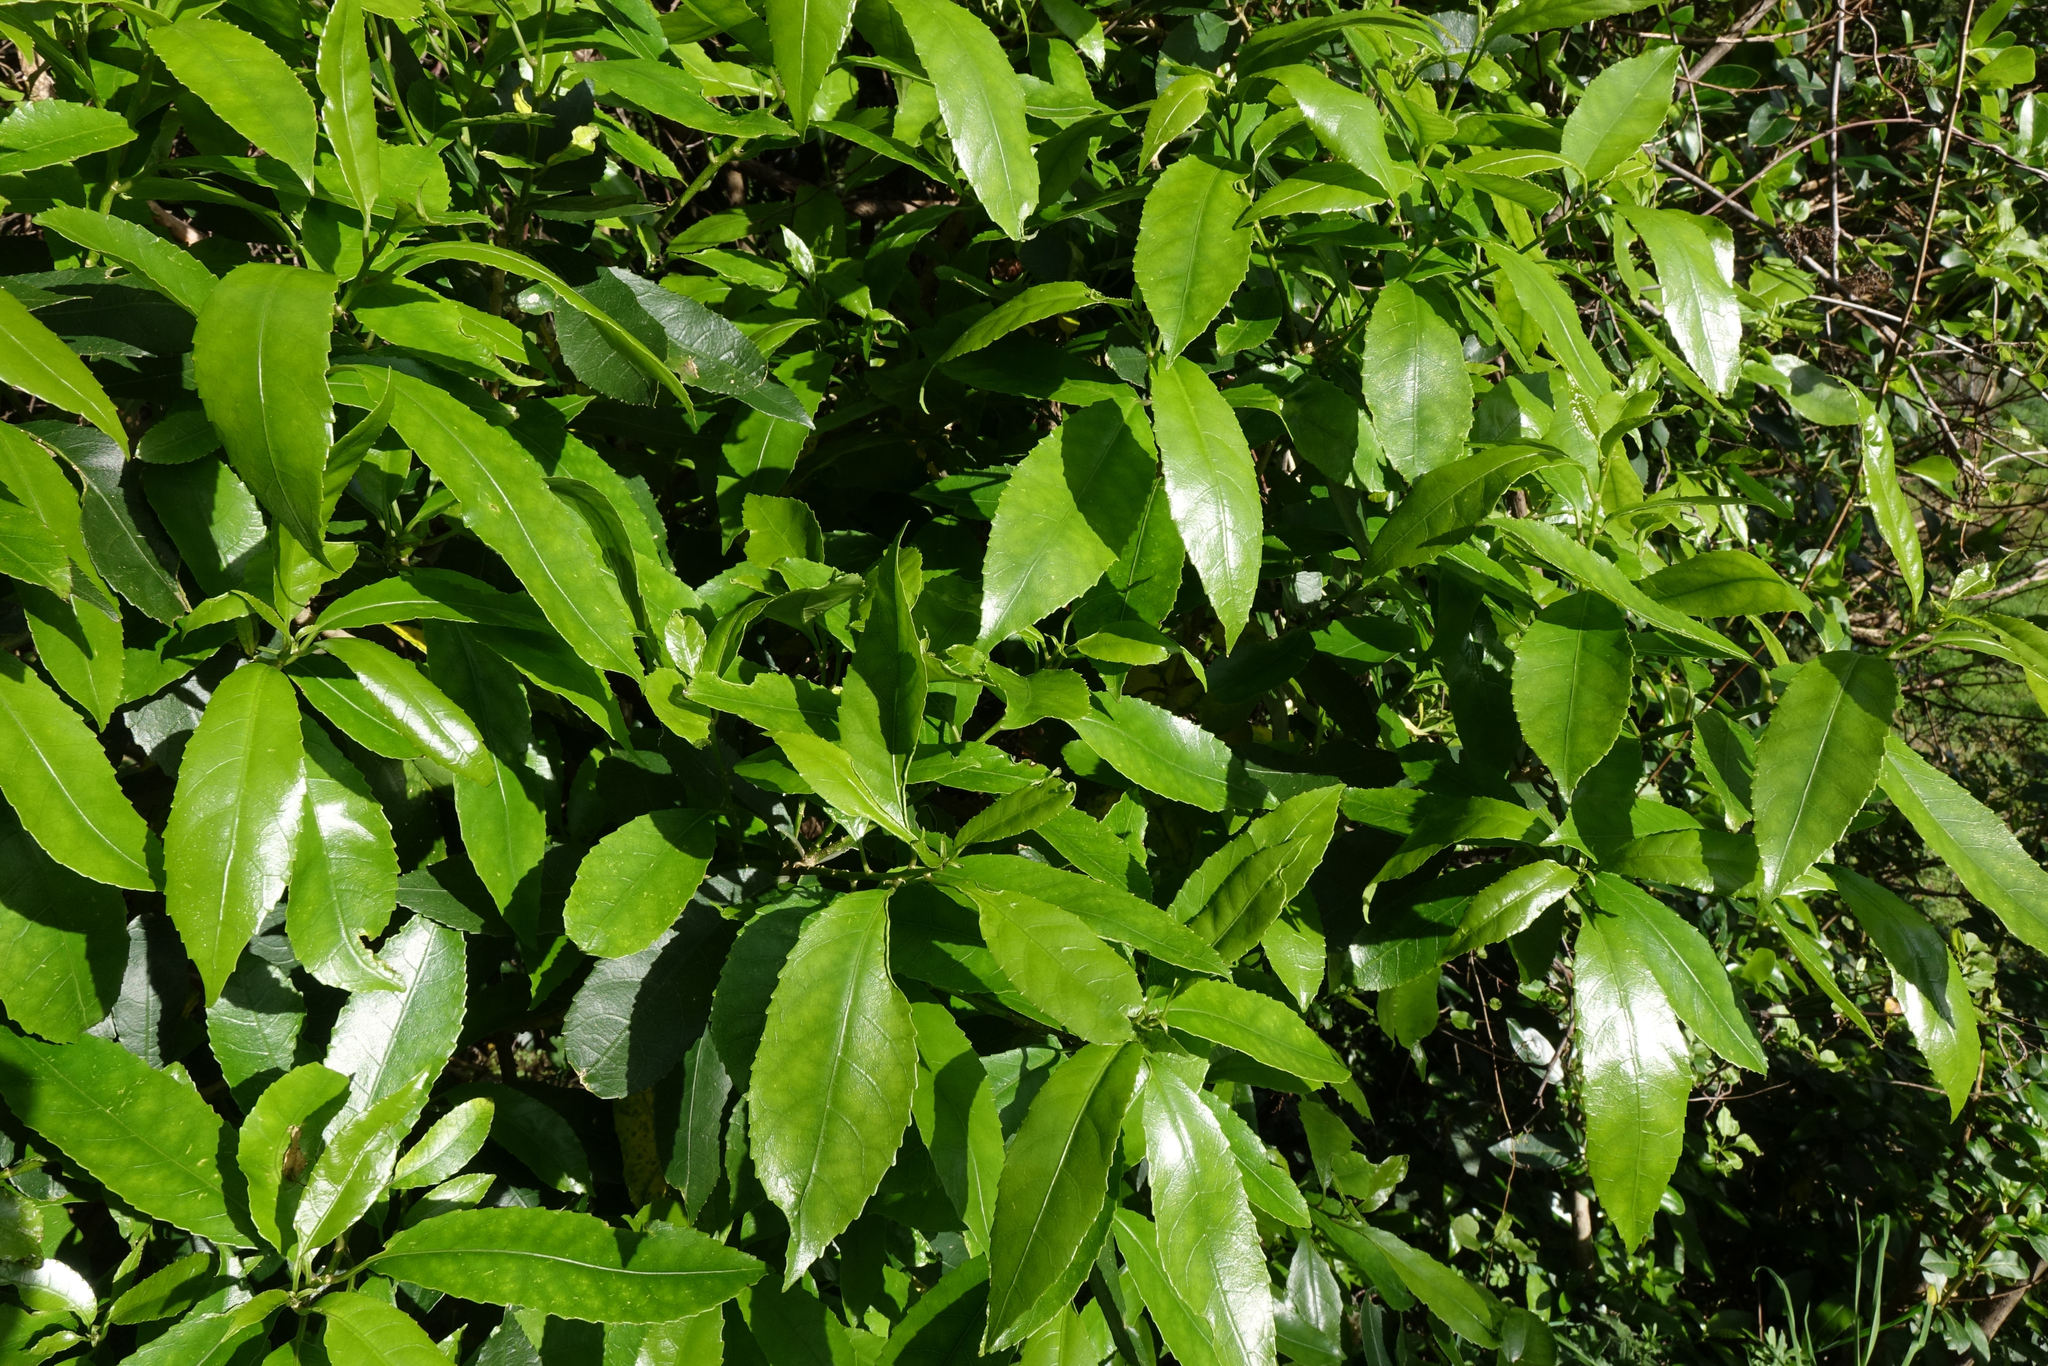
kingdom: Plantae
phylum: Tracheophyta
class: Magnoliopsida
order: Malpighiales
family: Violaceae
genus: Melicytus
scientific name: Melicytus ramiflorus
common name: Mahoe
